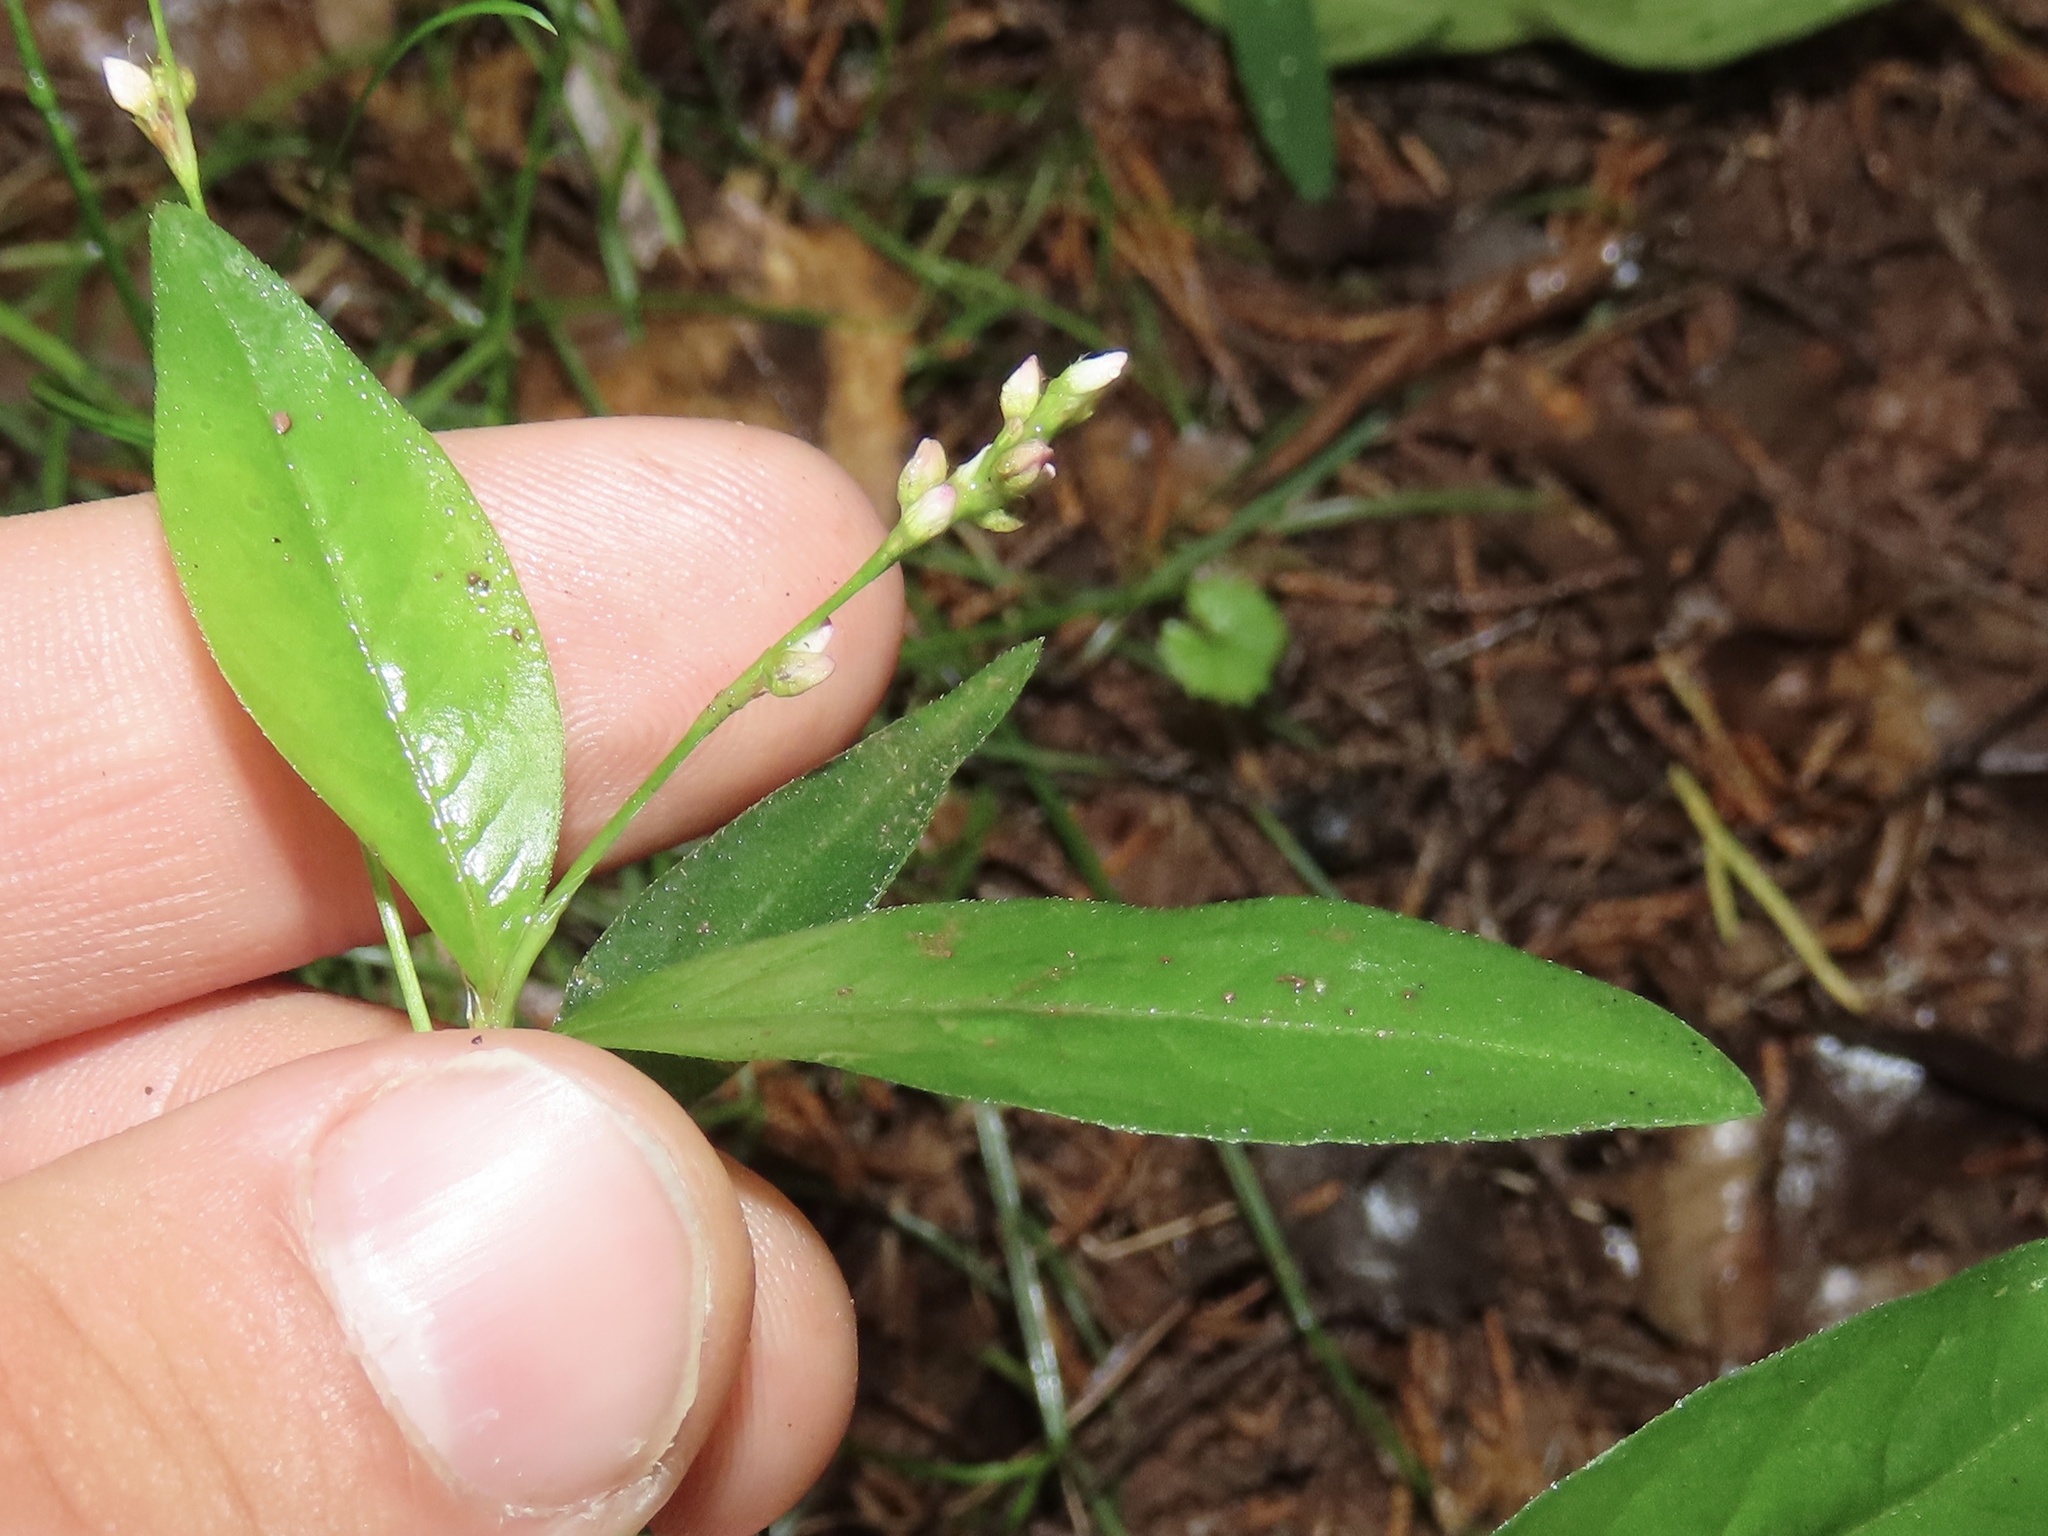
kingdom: Plantae
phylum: Tracheophyta
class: Magnoliopsida
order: Caryophyllales
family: Polygonaceae
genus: Persicaria
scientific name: Persicaria longiseta
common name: Bristly lady's-thumb
